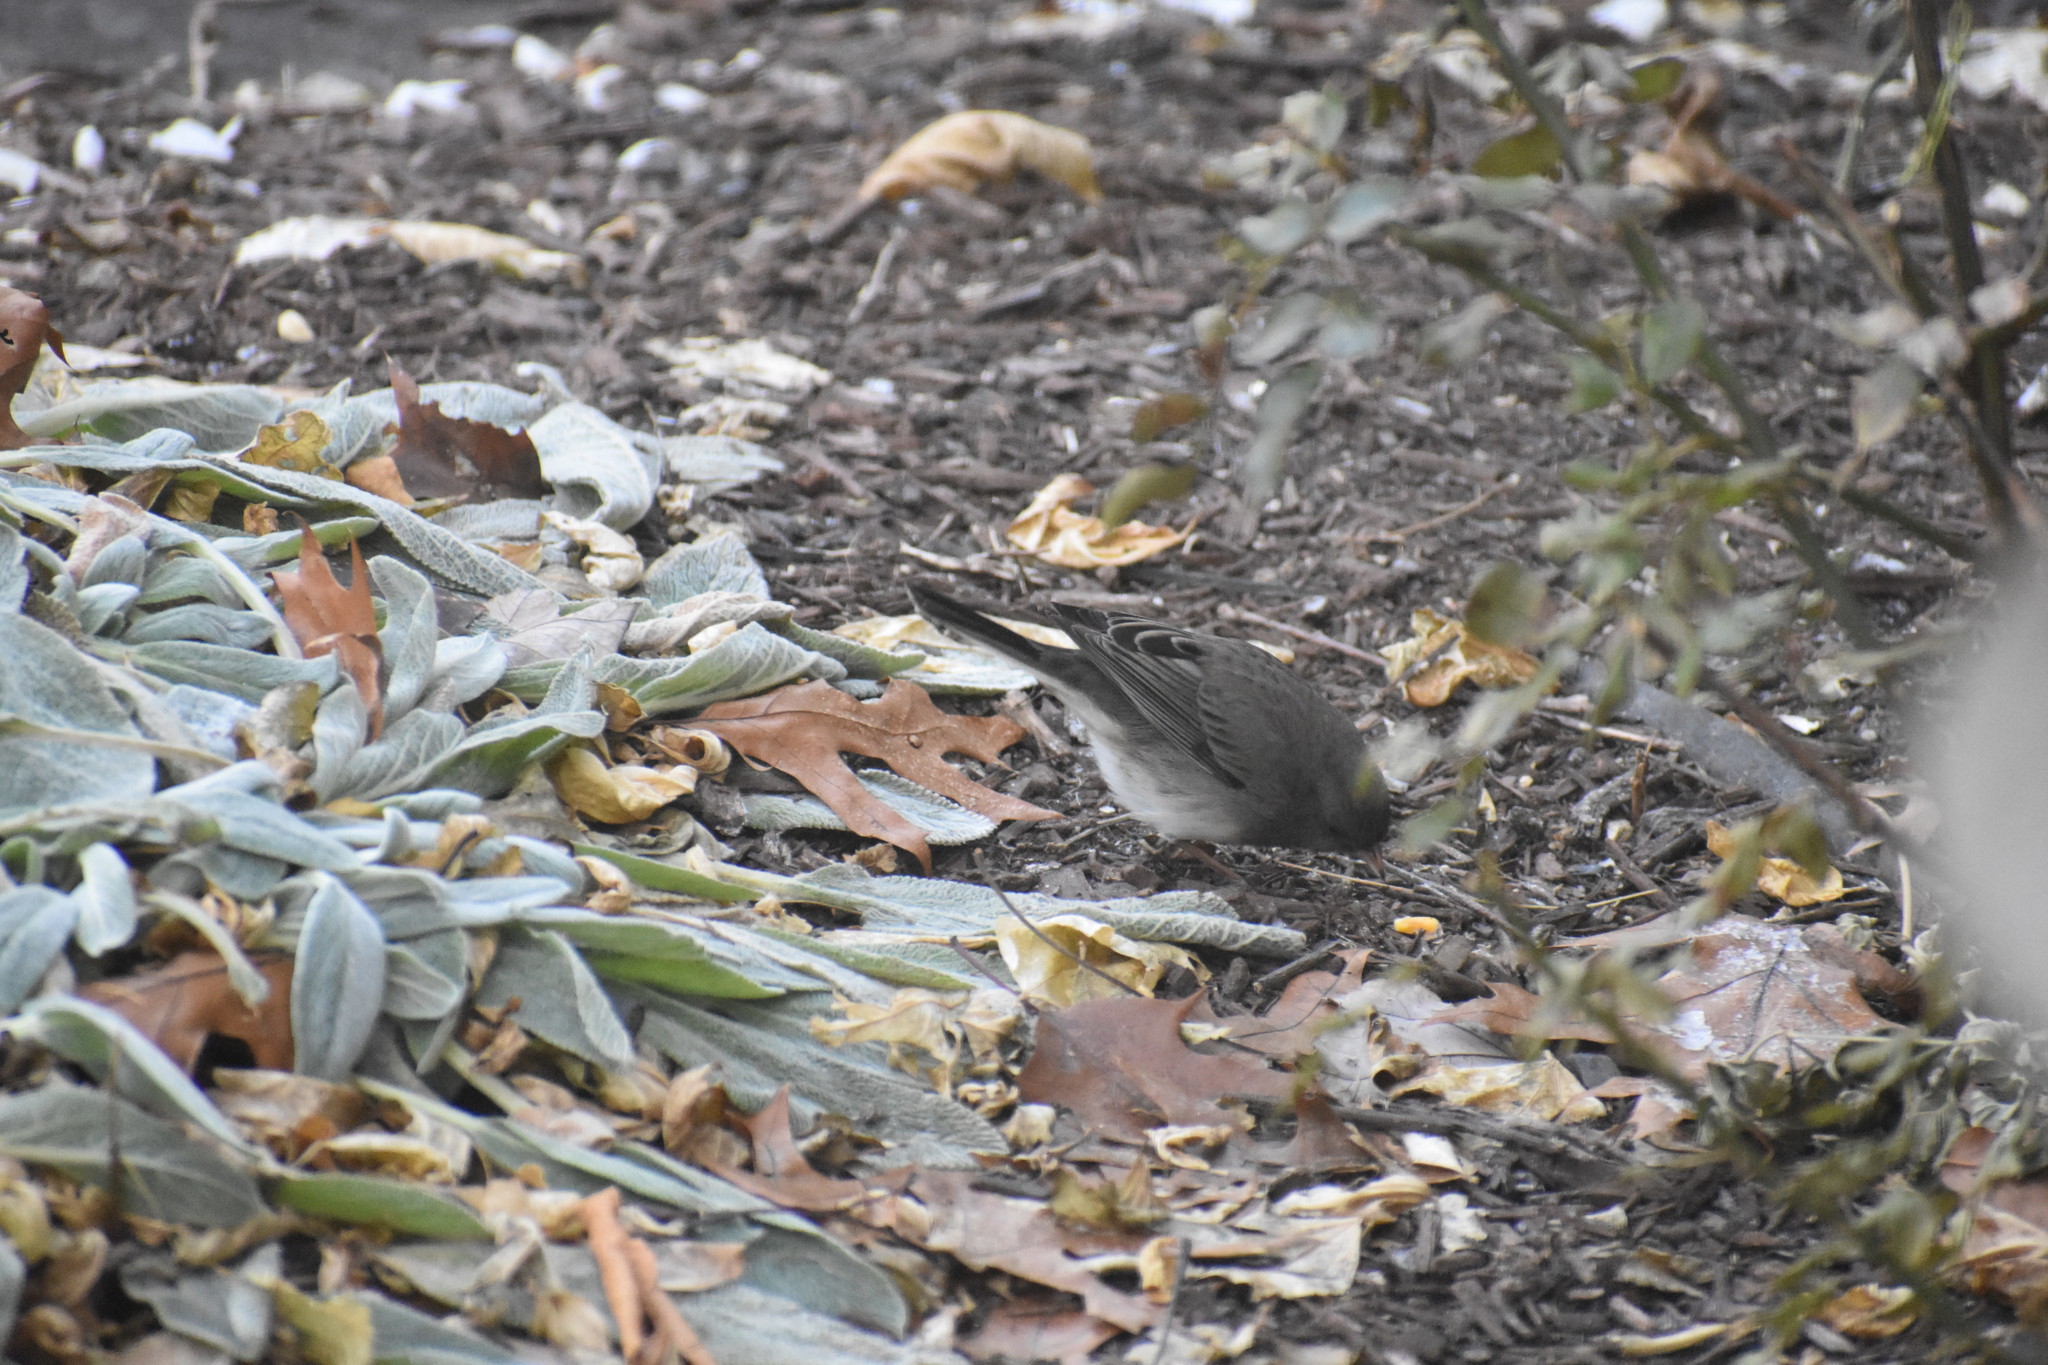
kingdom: Animalia
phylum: Chordata
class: Aves
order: Passeriformes
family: Passerellidae
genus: Junco
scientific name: Junco hyemalis
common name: Dark-eyed junco
